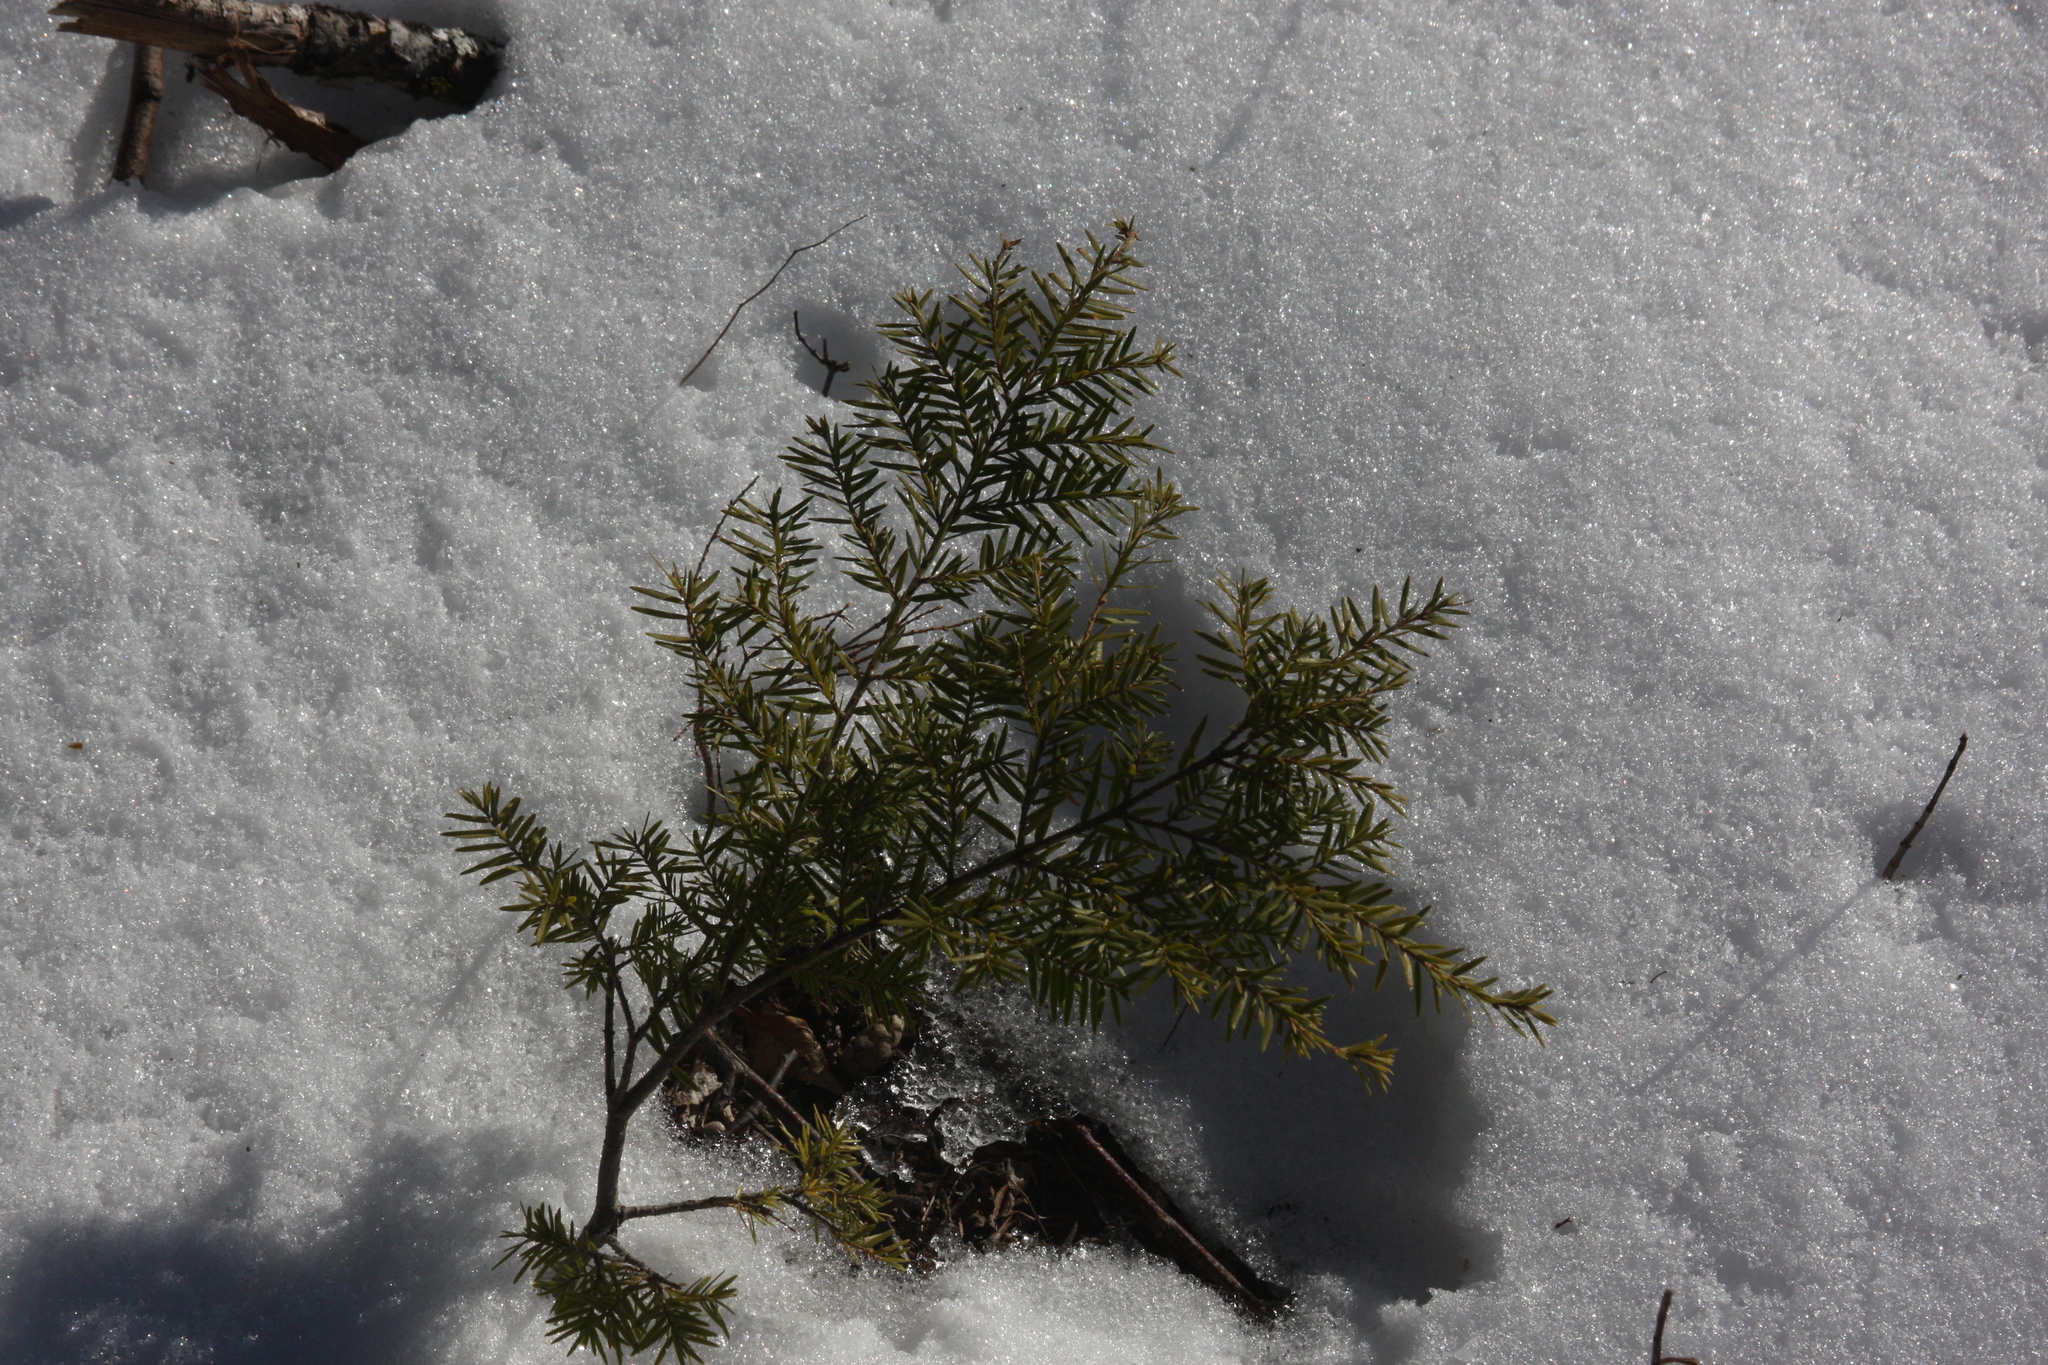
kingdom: Plantae
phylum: Tracheophyta
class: Pinopsida
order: Pinales
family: Pinaceae
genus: Tsuga
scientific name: Tsuga canadensis
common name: Eastern hemlock
